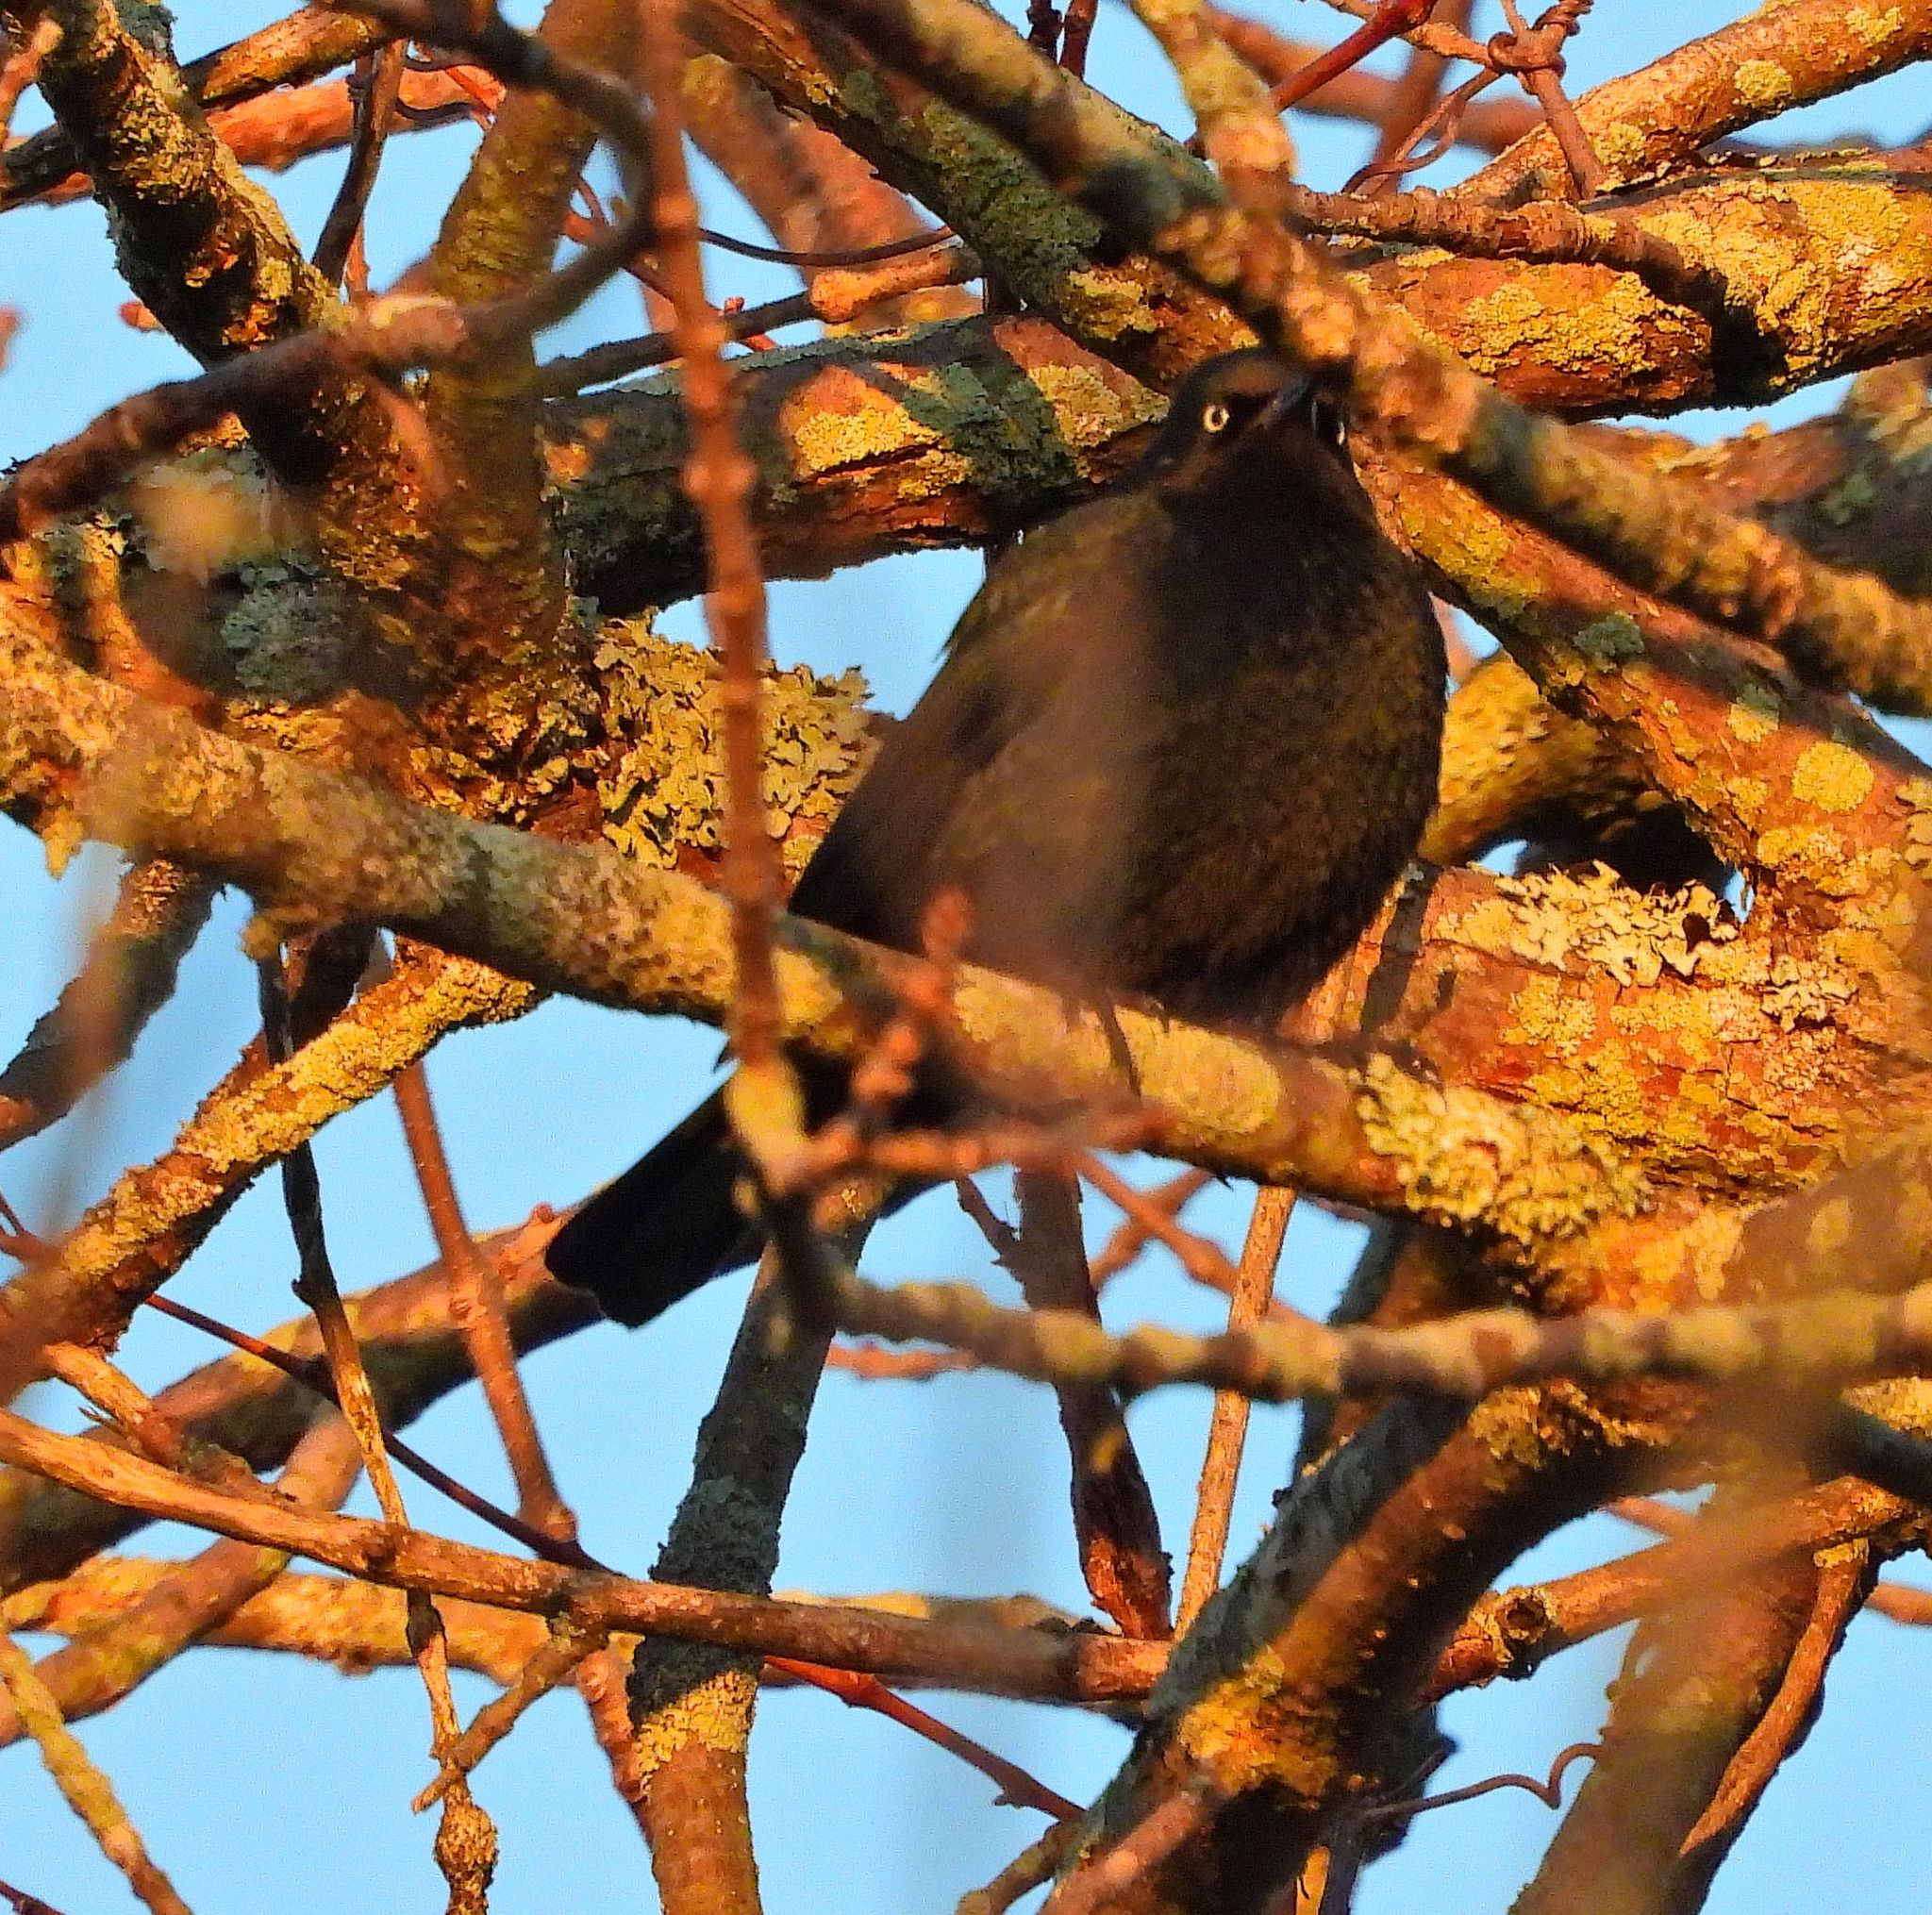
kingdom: Animalia
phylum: Chordata
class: Aves
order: Passeriformes
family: Icteridae
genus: Euphagus
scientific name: Euphagus carolinus
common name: Rusty blackbird
